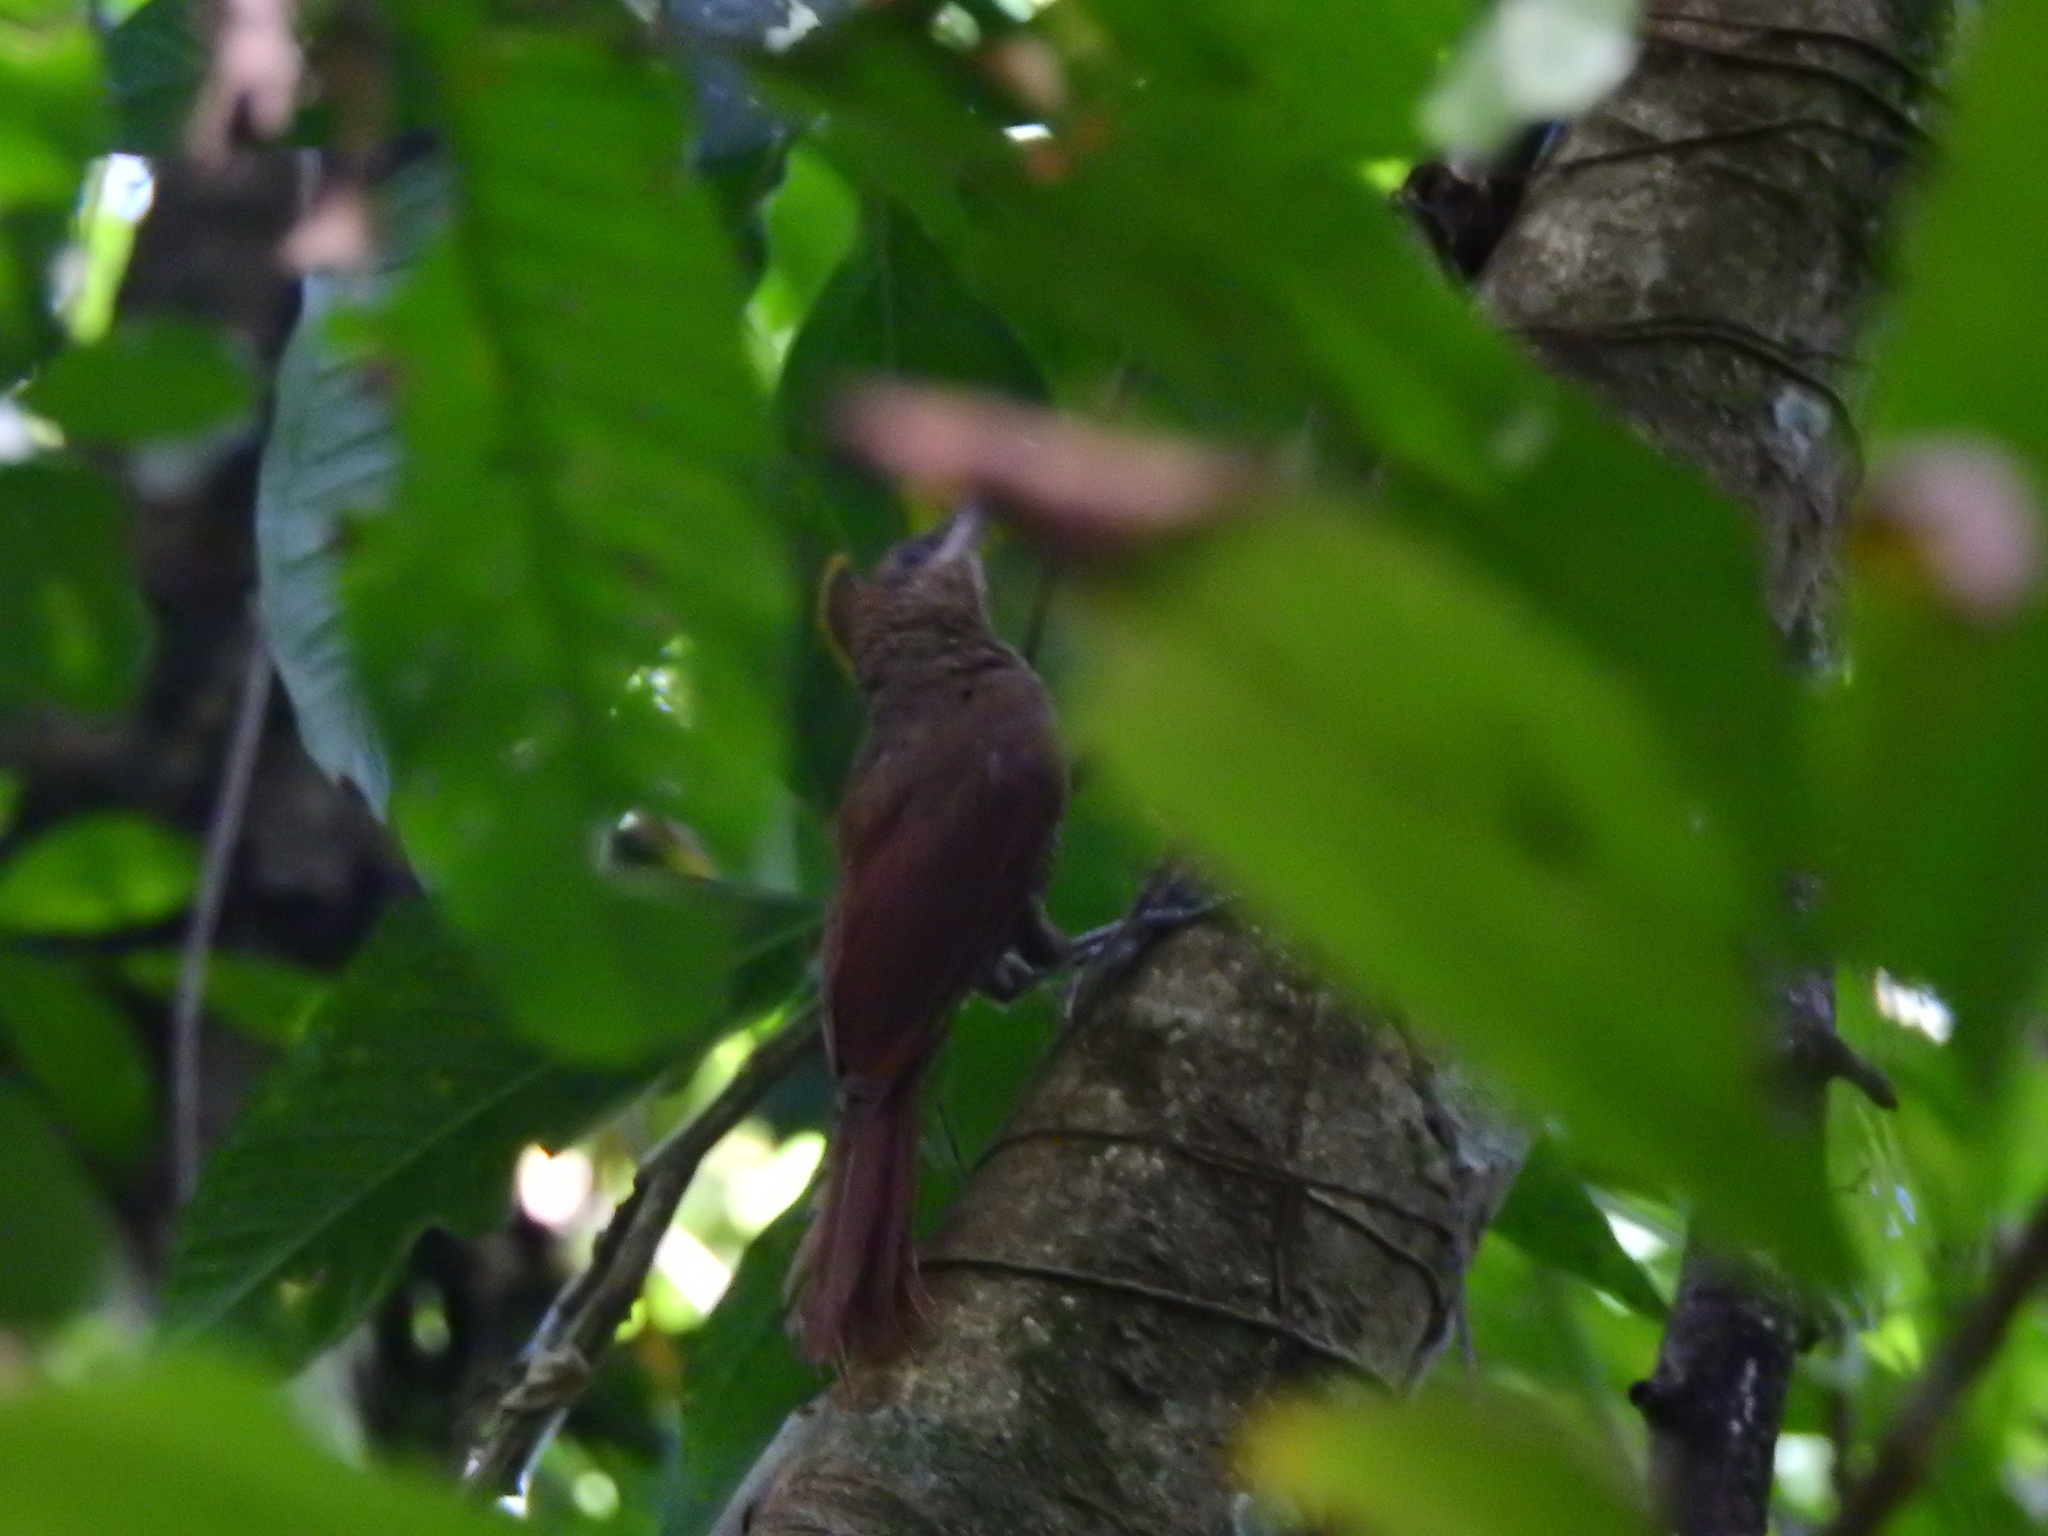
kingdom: Animalia
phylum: Chordata
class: Aves
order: Passeriformes
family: Furnariidae
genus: Sittasomus
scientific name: Sittasomus griseicapillus
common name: Olivaceous woodcreeper
